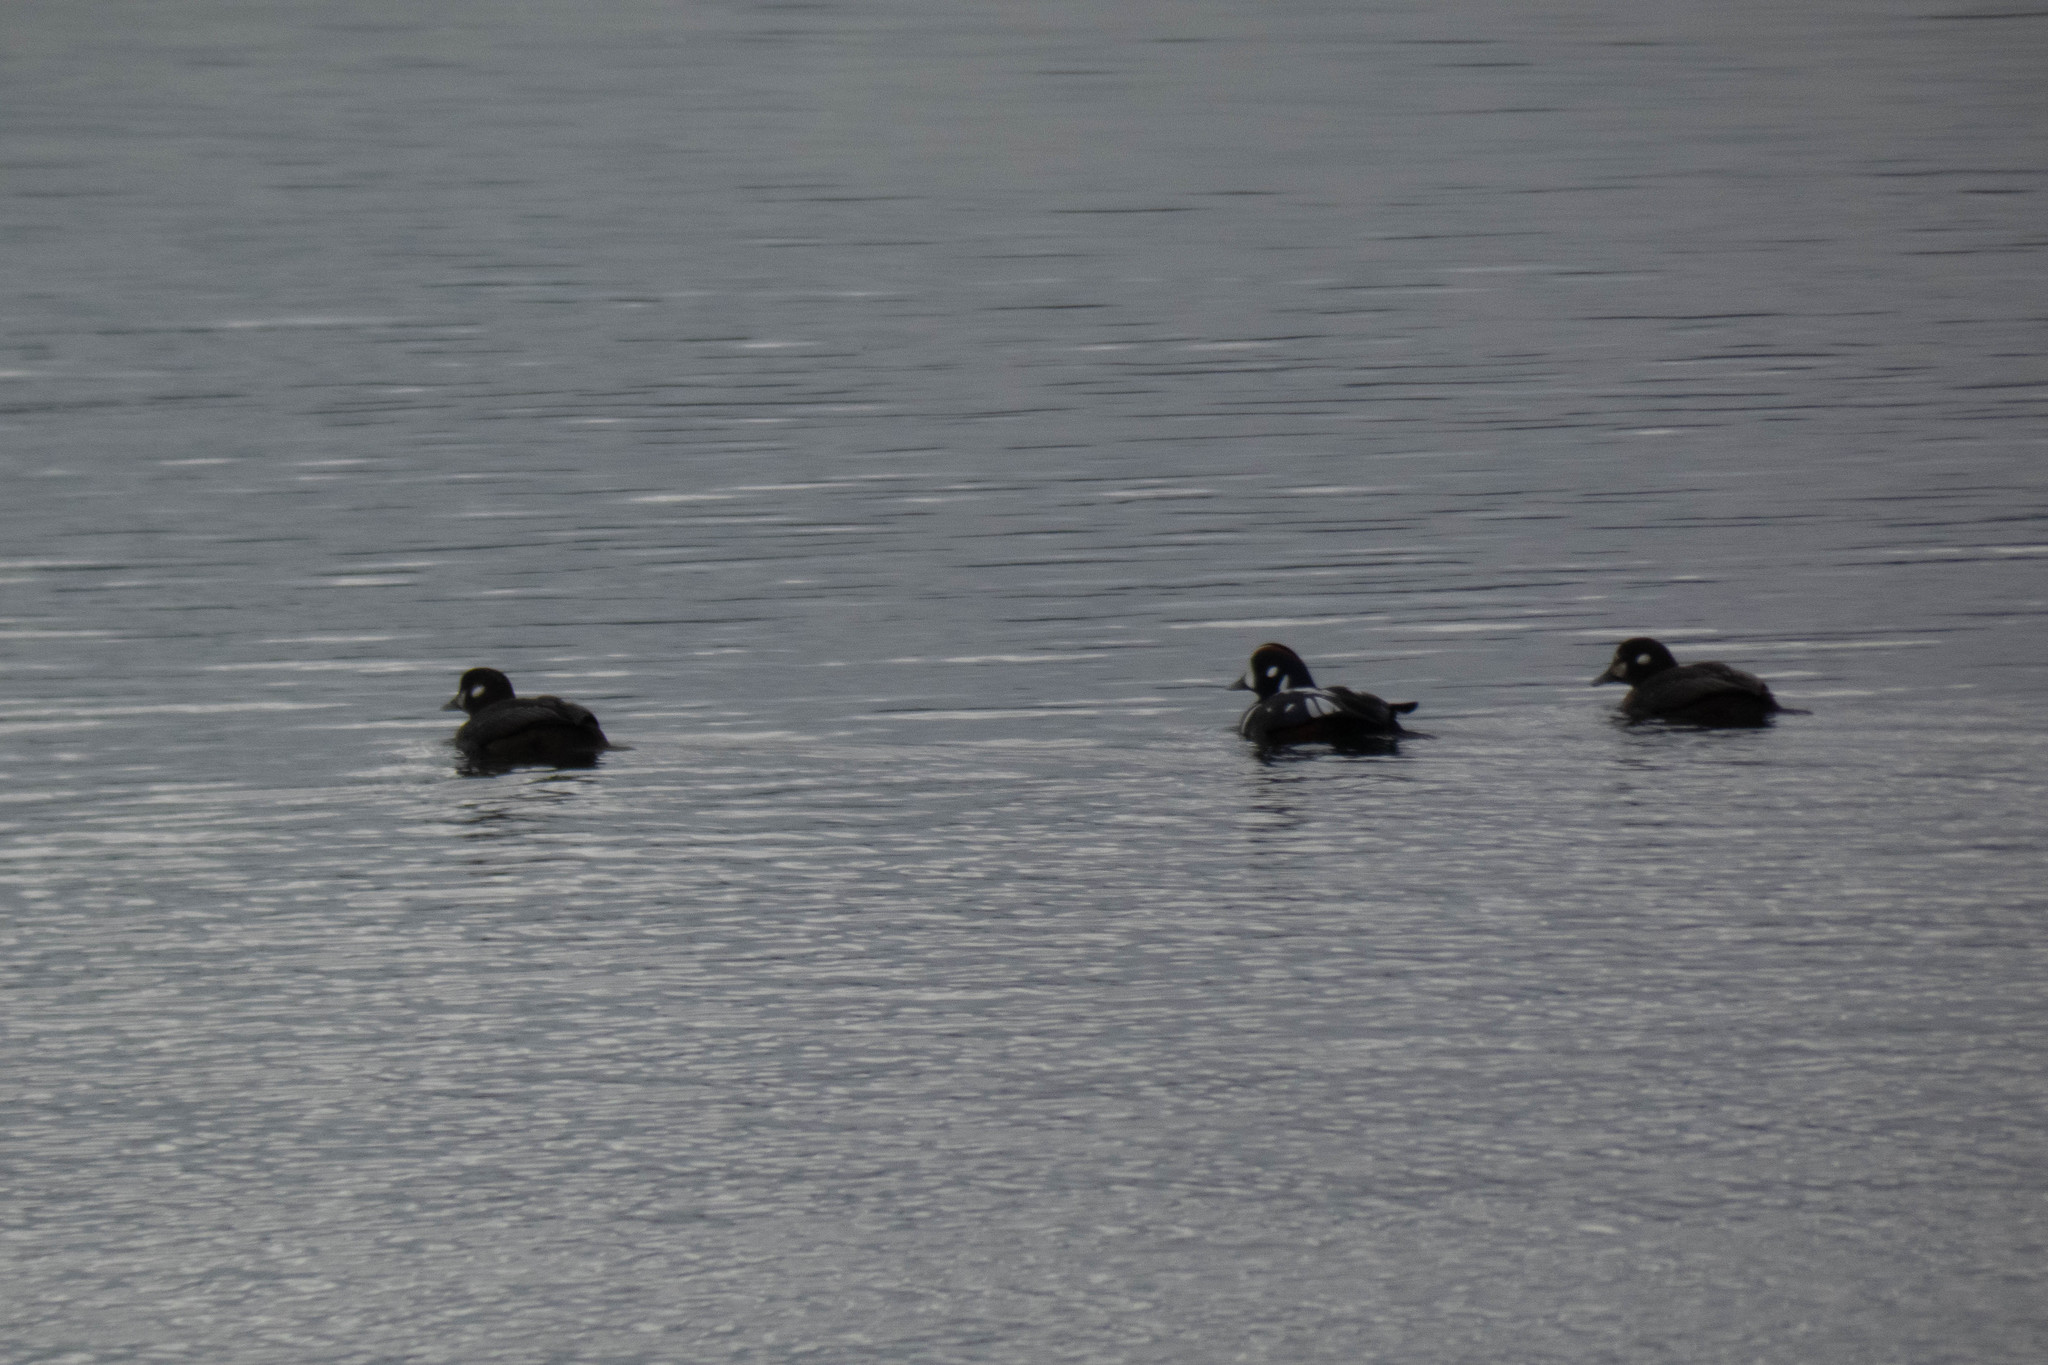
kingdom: Animalia
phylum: Chordata
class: Aves
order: Anseriformes
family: Anatidae
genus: Histrionicus
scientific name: Histrionicus histrionicus
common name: Harlequin duck
